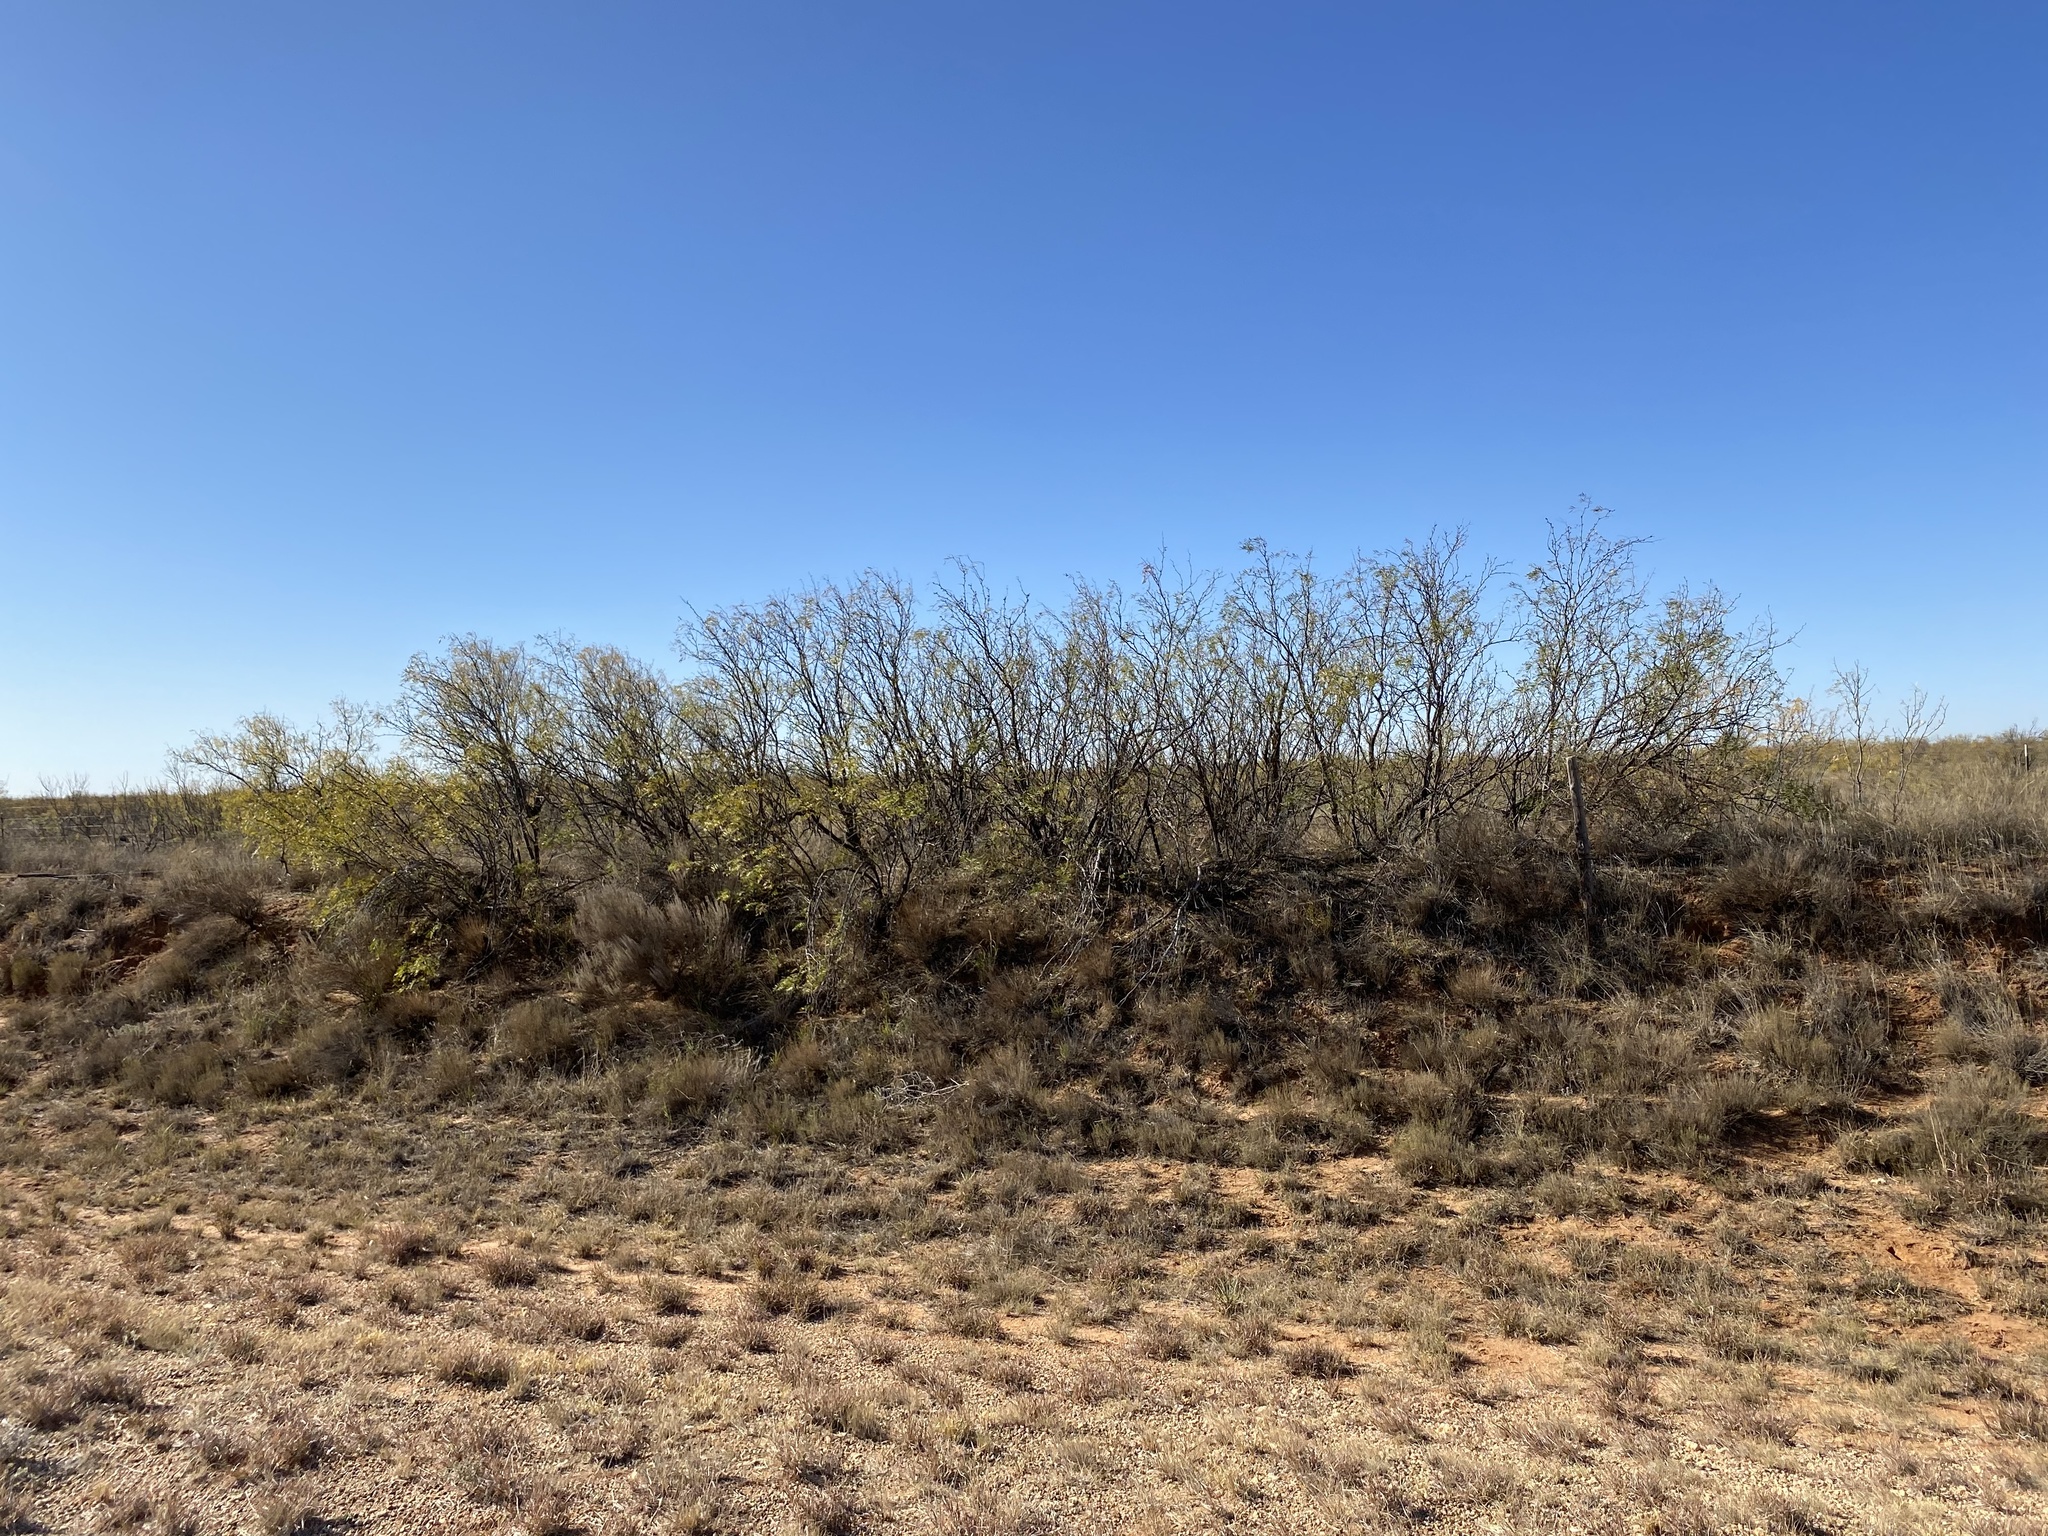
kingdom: Plantae
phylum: Tracheophyta
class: Magnoliopsida
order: Fabales
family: Fabaceae
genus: Prosopis
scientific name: Prosopis glandulosa
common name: Honey mesquite
